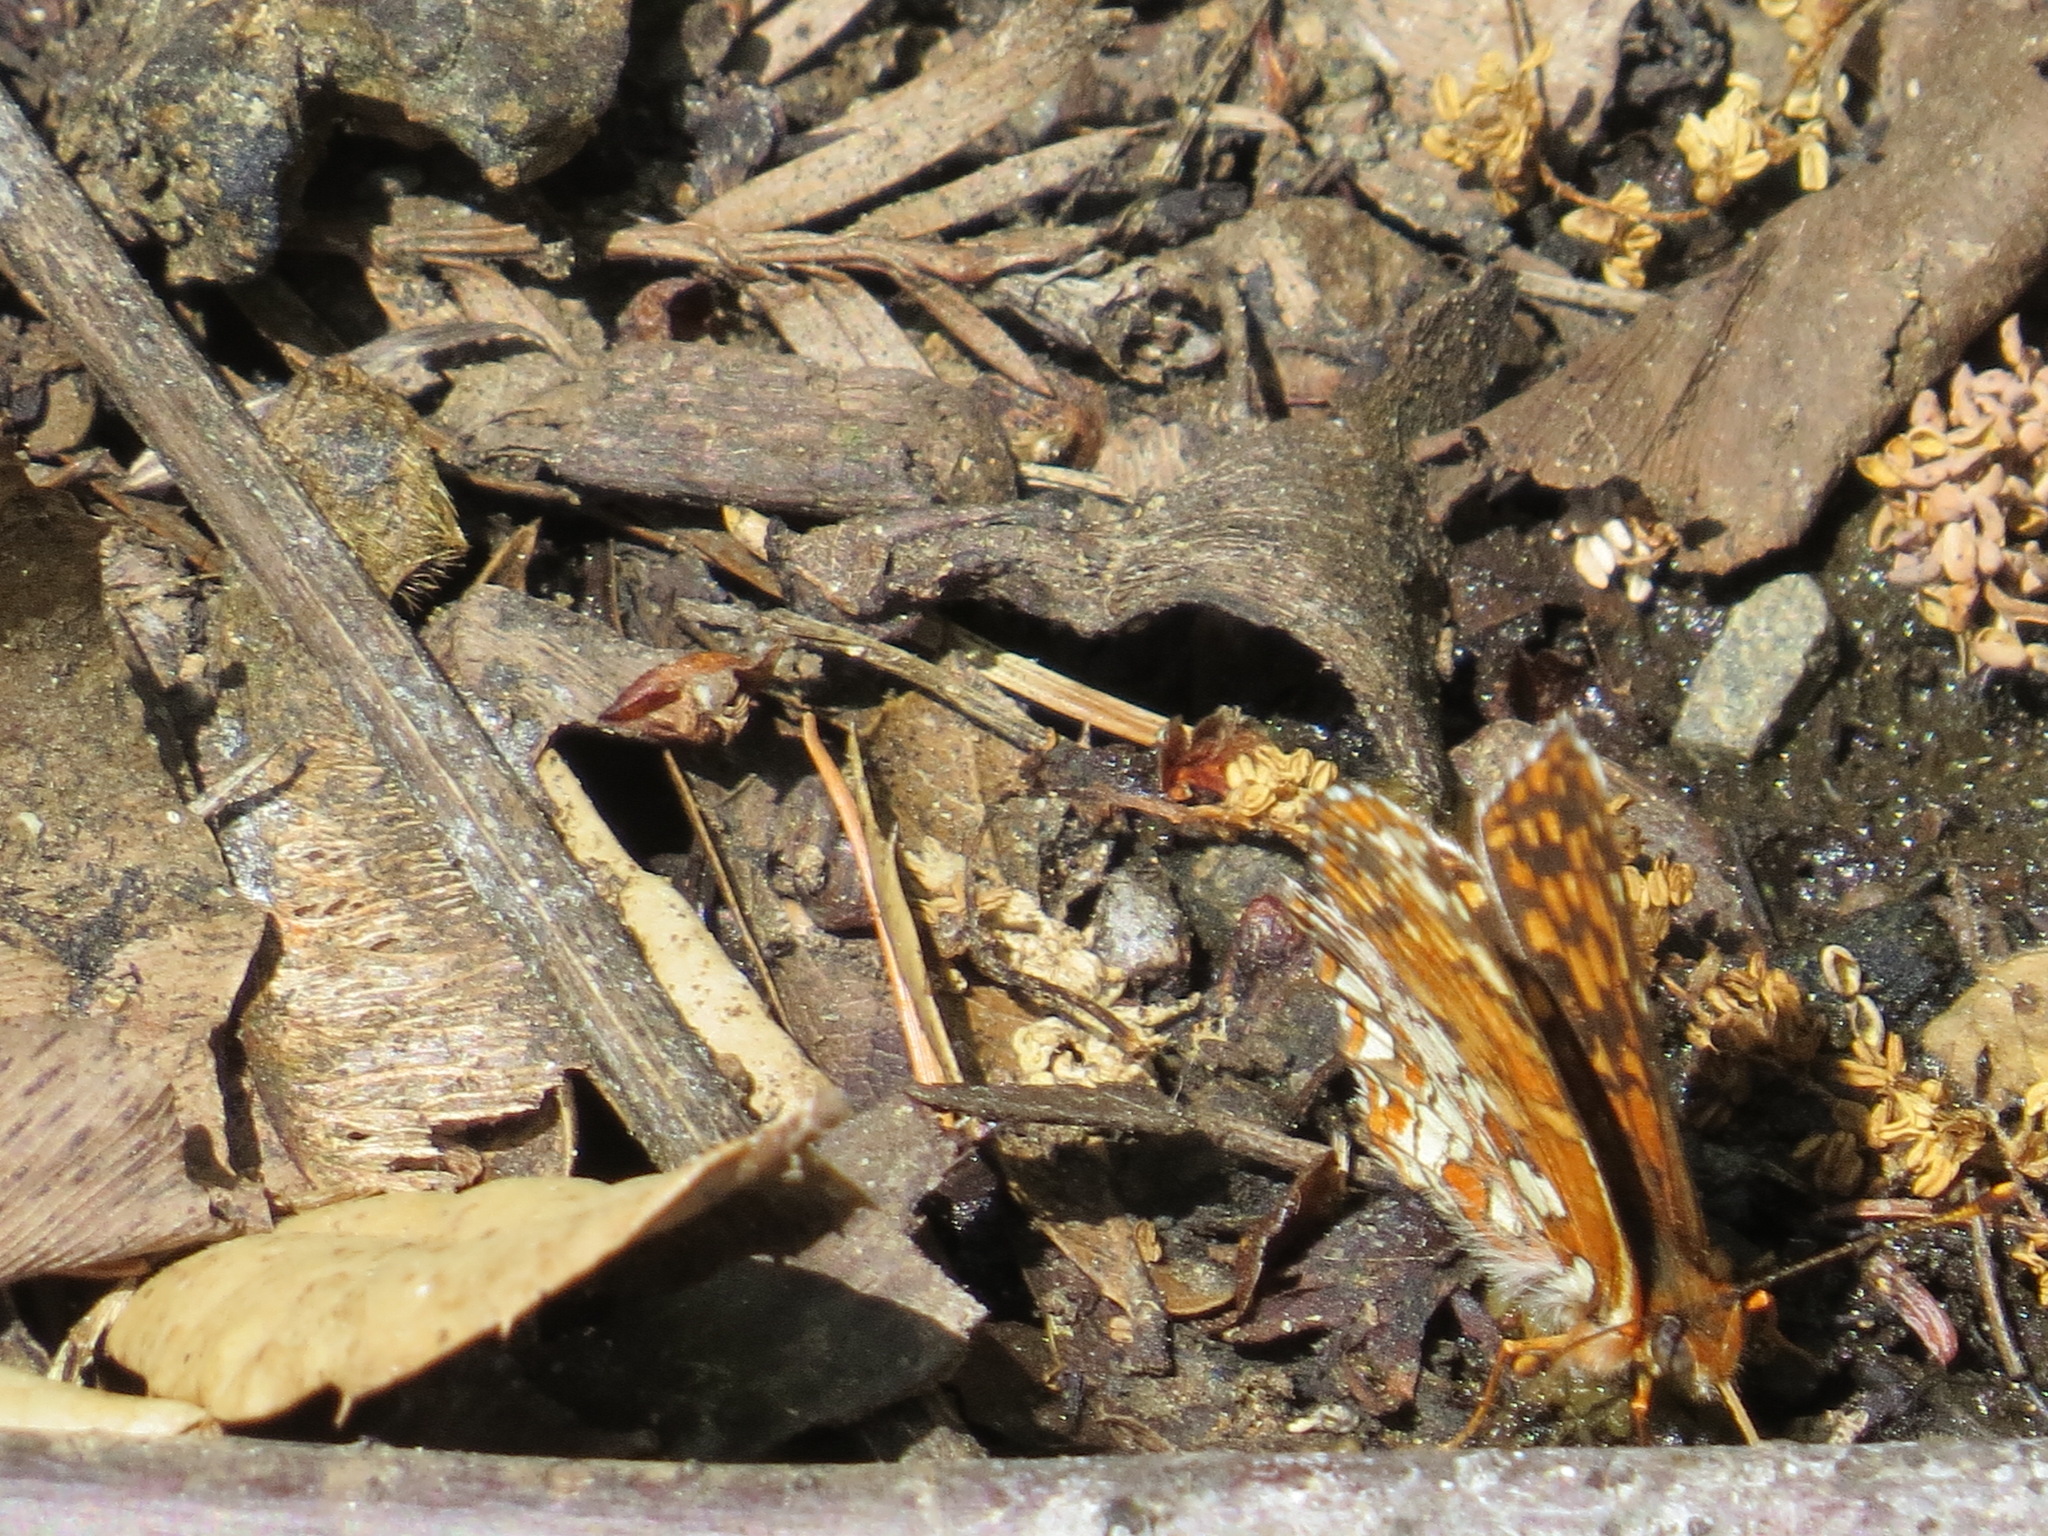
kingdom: Animalia
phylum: Arthropoda
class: Insecta
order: Lepidoptera
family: Nymphalidae
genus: Chlosyne
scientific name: Chlosyne palla
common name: Northern checkerspot
